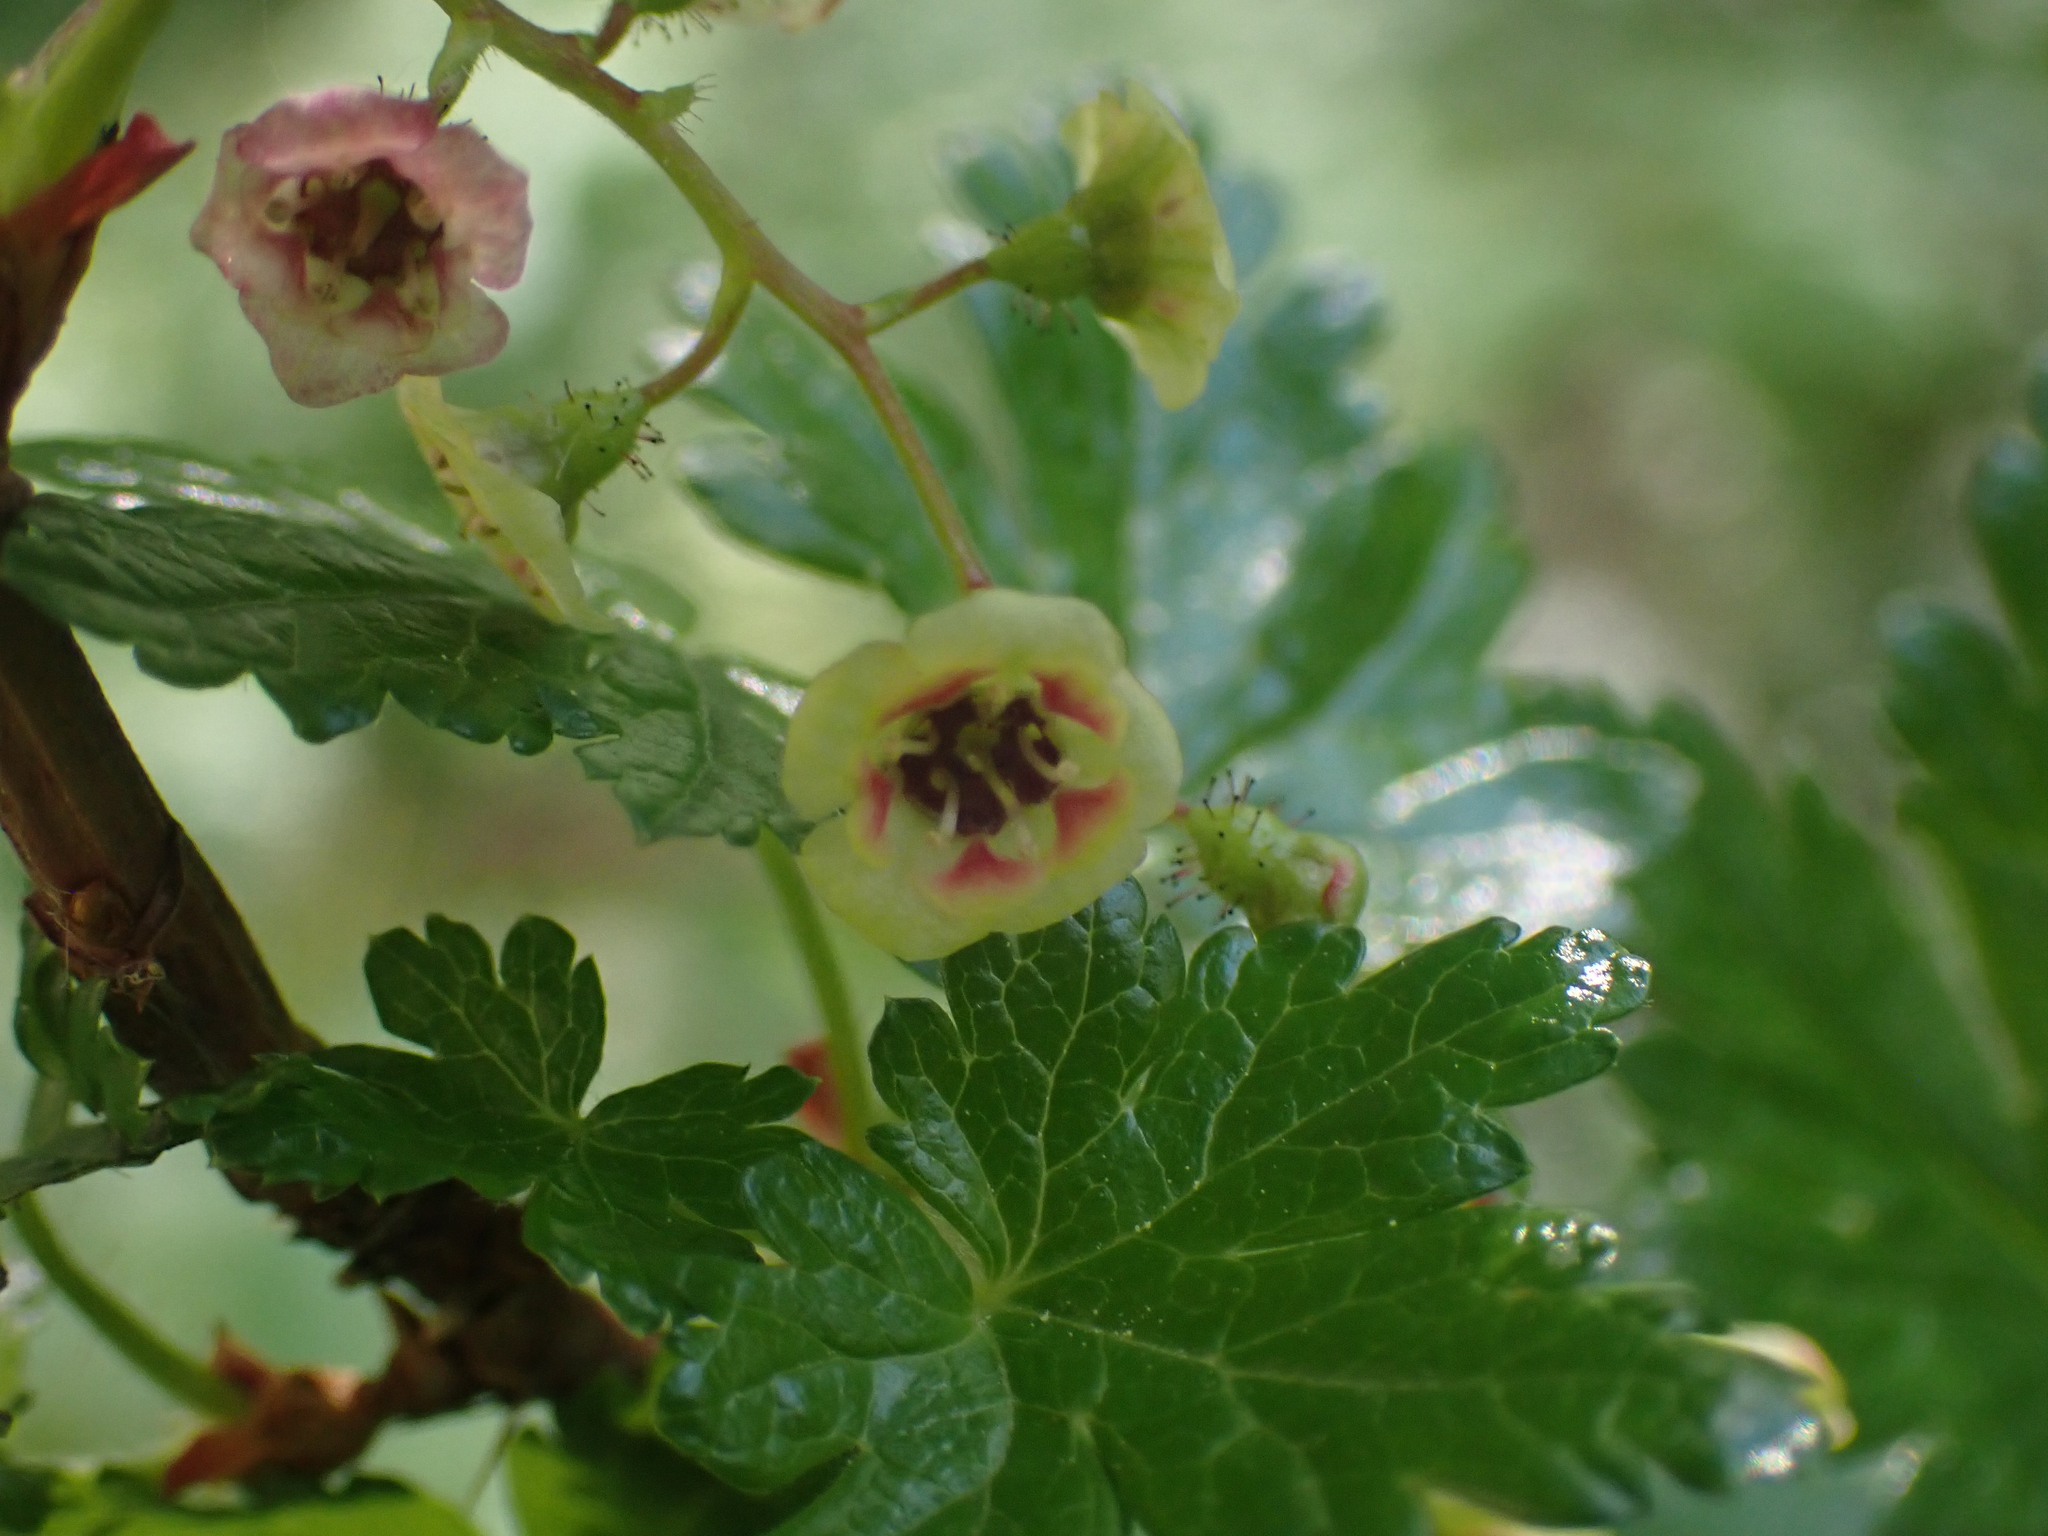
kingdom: Plantae
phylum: Tracheophyta
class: Magnoliopsida
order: Saxifragales
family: Grossulariaceae
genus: Ribes
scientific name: Ribes lacustre
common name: Black gooseberry
